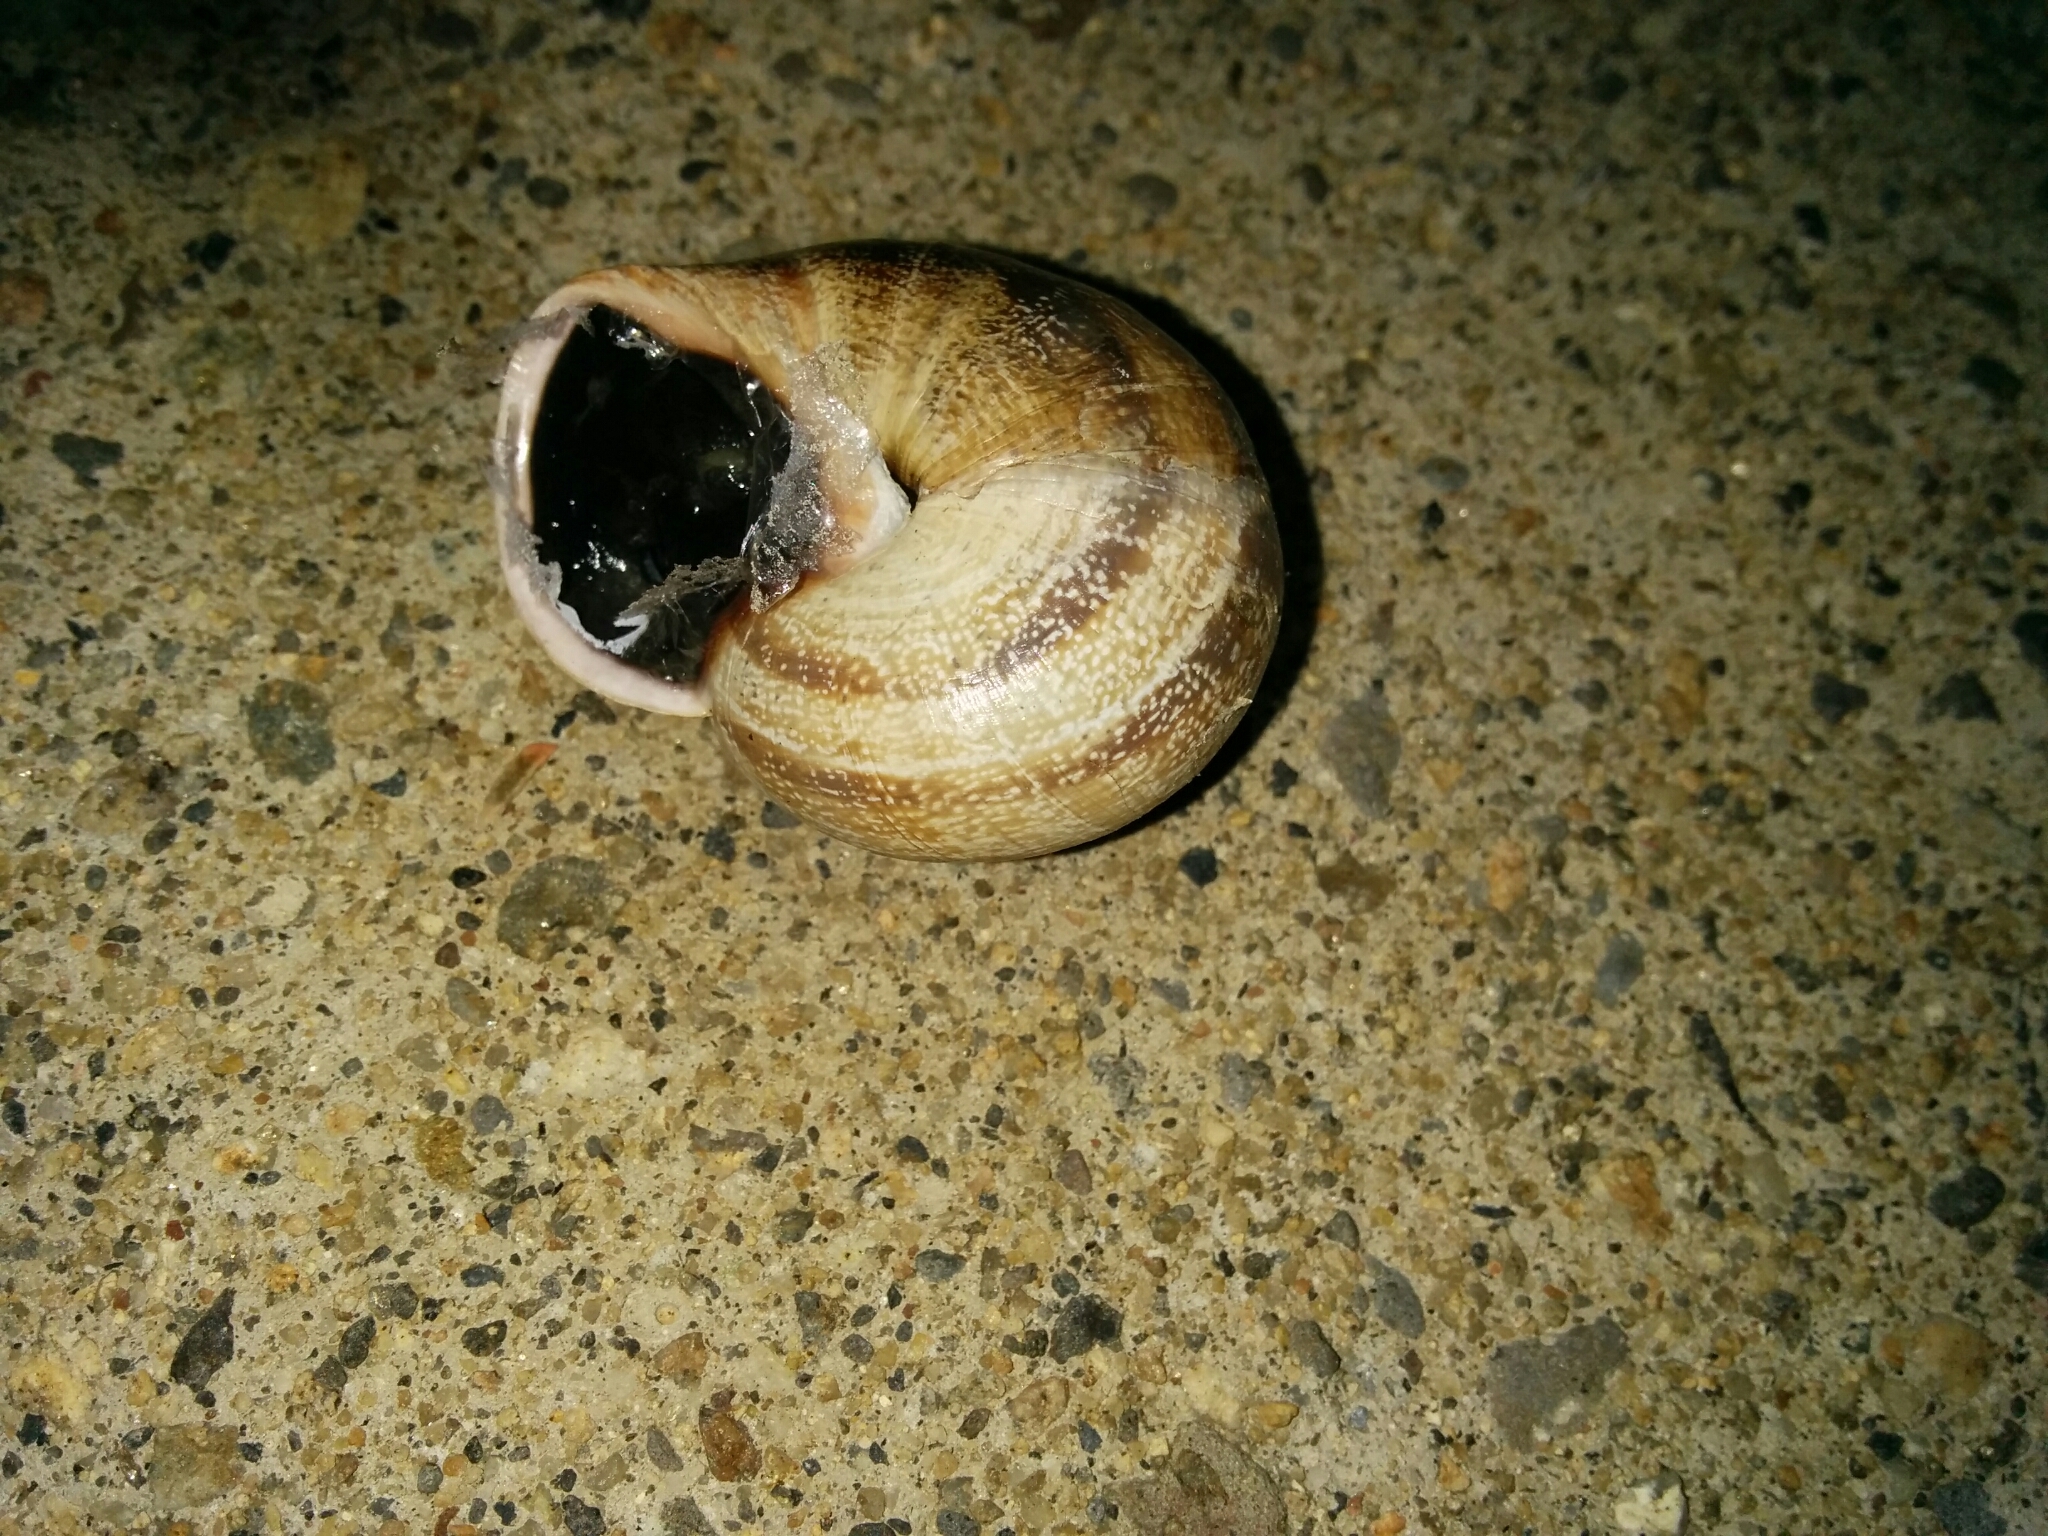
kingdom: Animalia
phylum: Mollusca
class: Gastropoda
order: Stylommatophora
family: Helicidae
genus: Otala
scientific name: Otala punctata
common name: Milk snail
